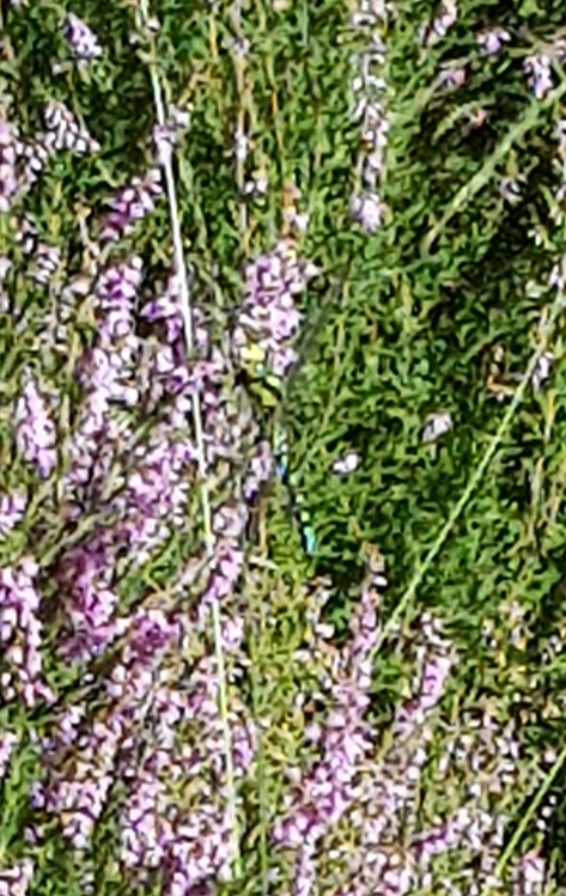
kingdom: Animalia
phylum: Arthropoda
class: Insecta
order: Odonata
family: Aeshnidae
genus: Aeshna
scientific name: Aeshna cyanea
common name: Southern hawker
